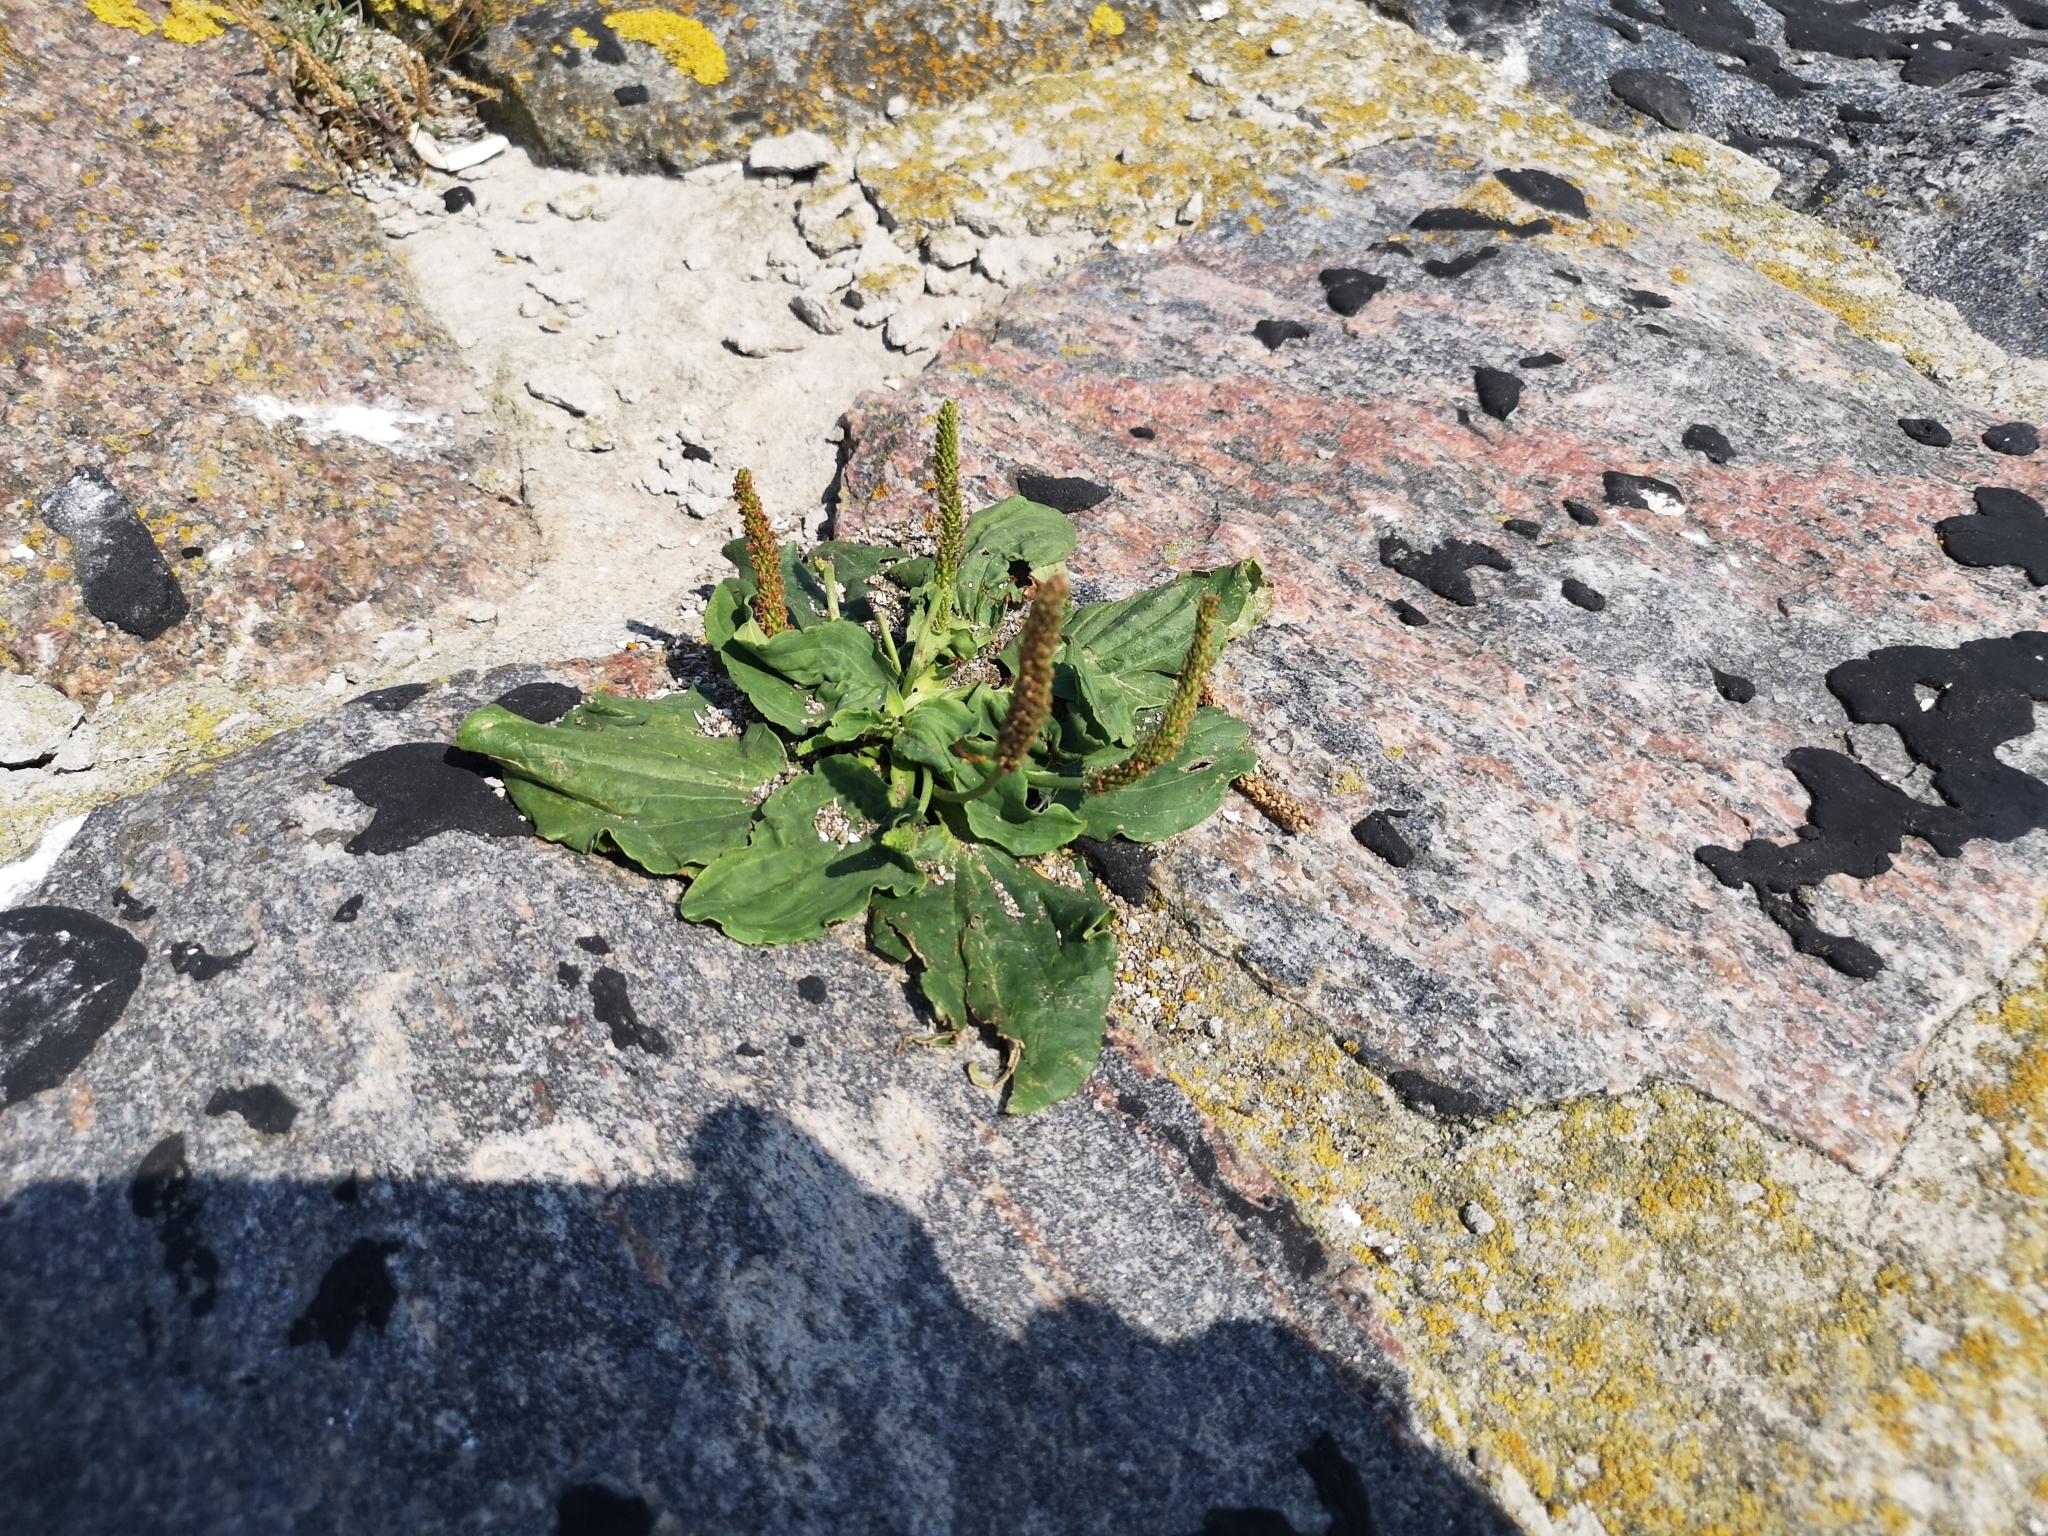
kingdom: Plantae
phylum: Tracheophyta
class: Magnoliopsida
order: Lamiales
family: Plantaginaceae
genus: Plantago
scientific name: Plantago major
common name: Common plantain
